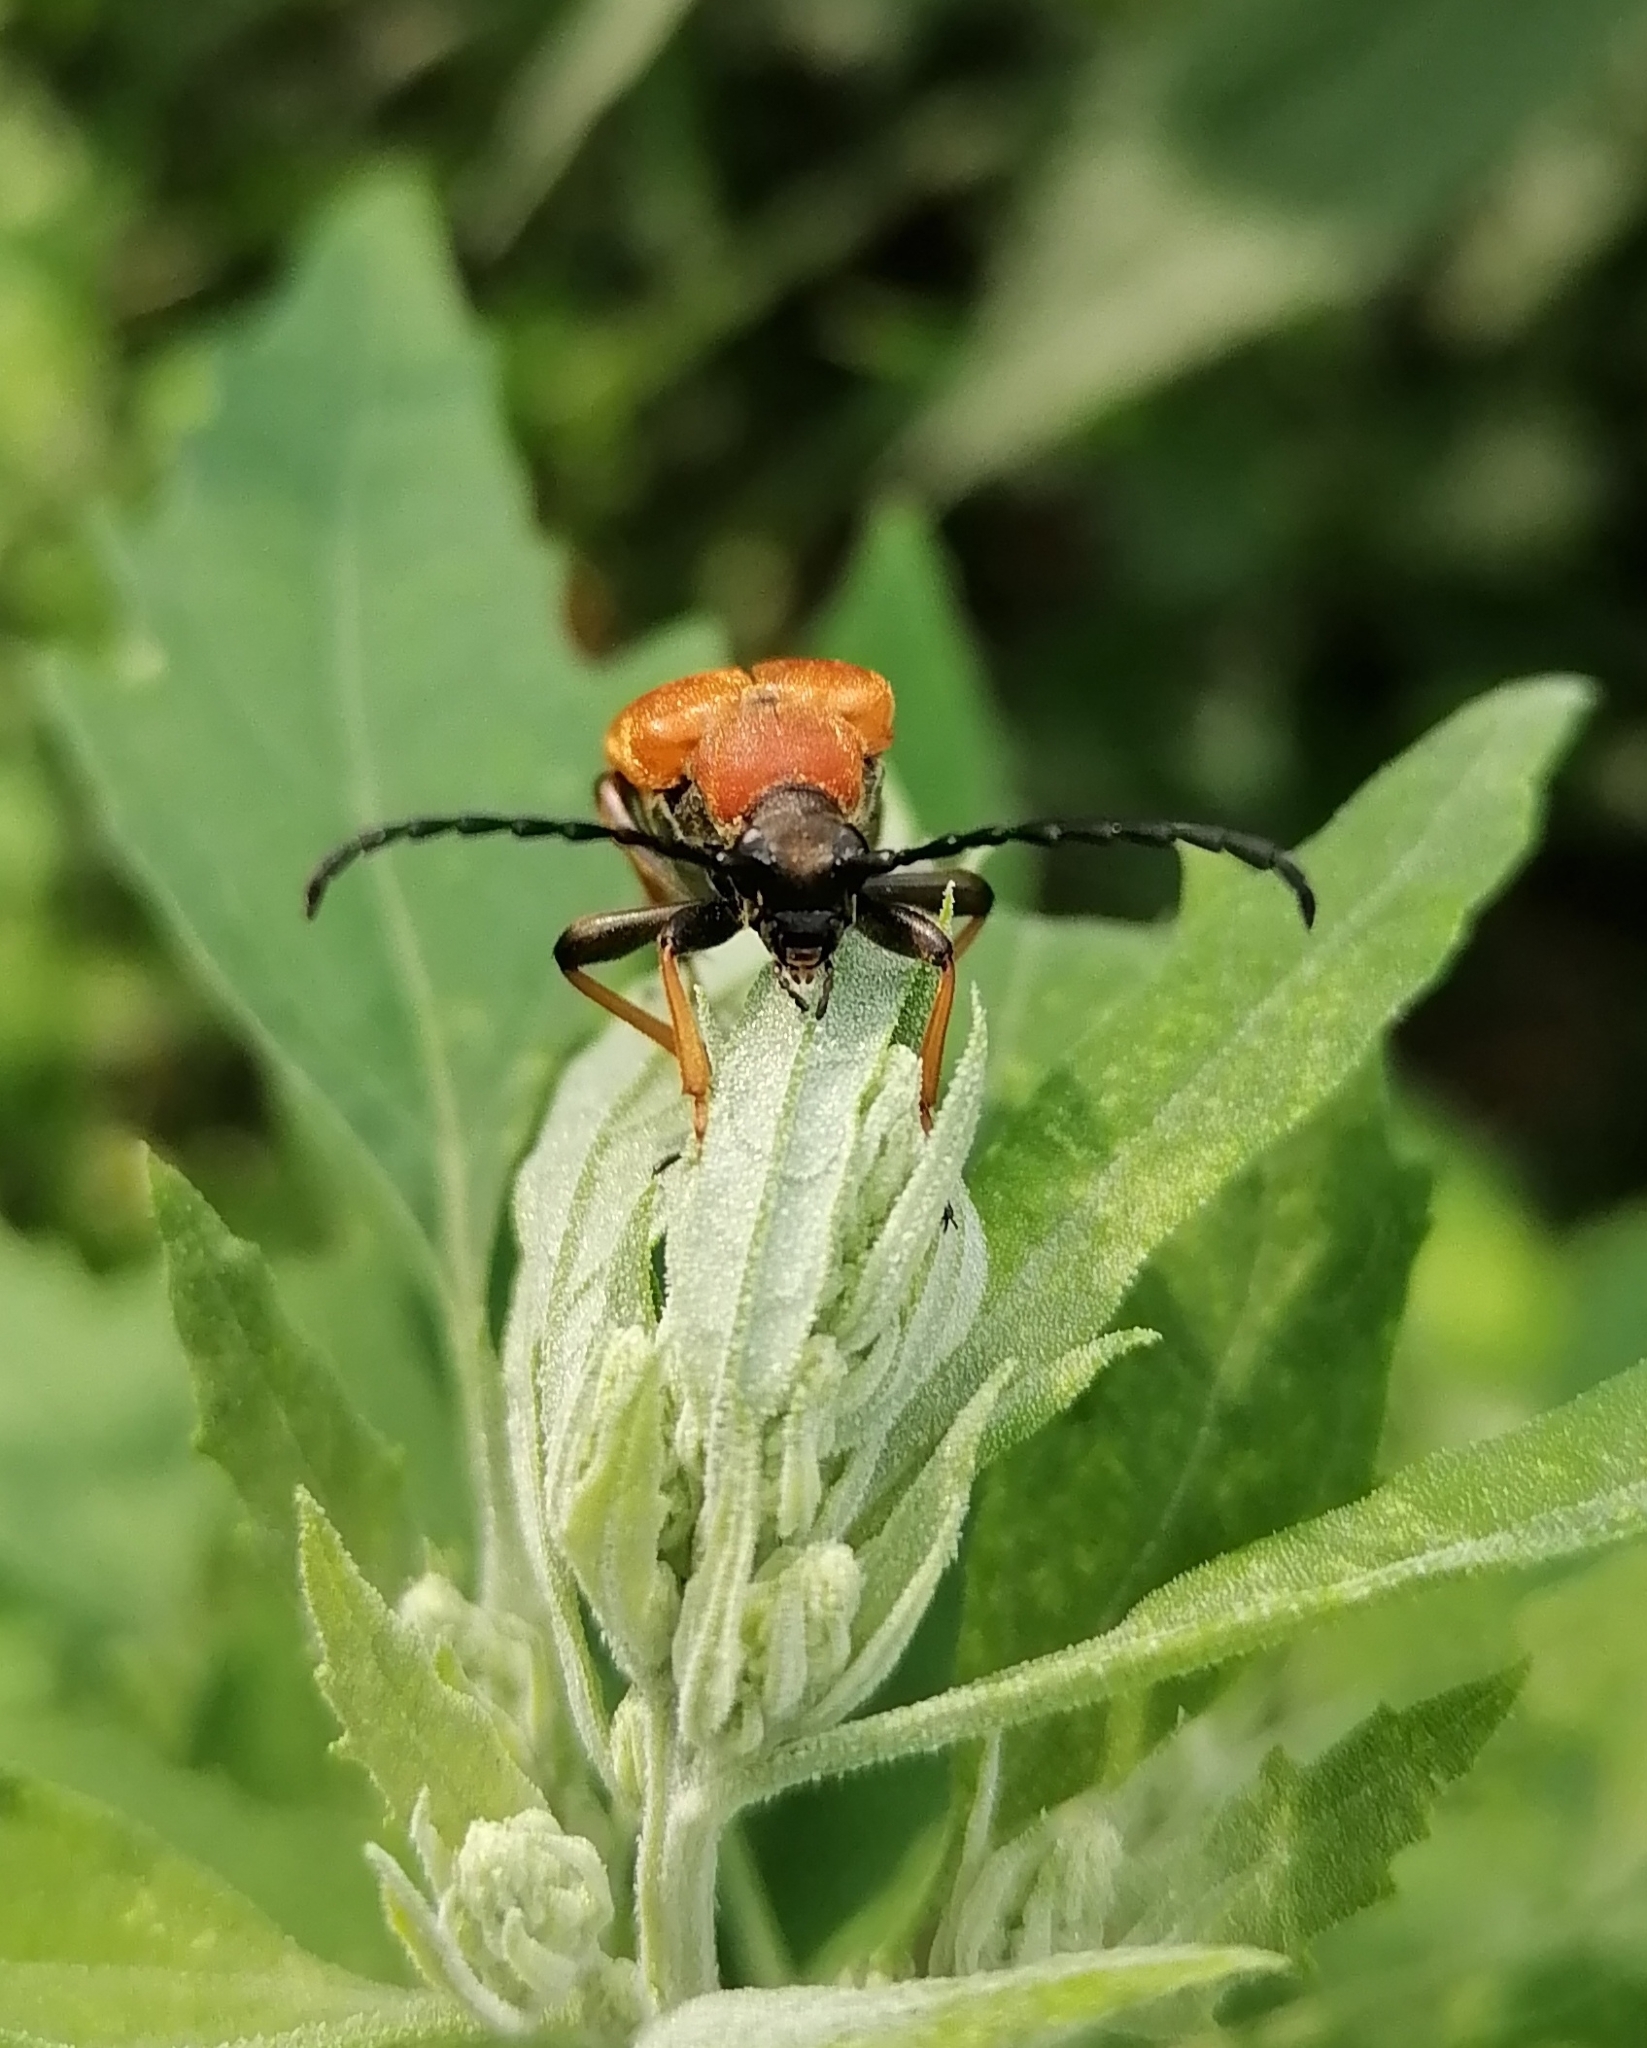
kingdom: Animalia
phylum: Arthropoda
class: Insecta
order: Coleoptera
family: Cerambycidae
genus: Stictoleptura
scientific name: Stictoleptura rubra
